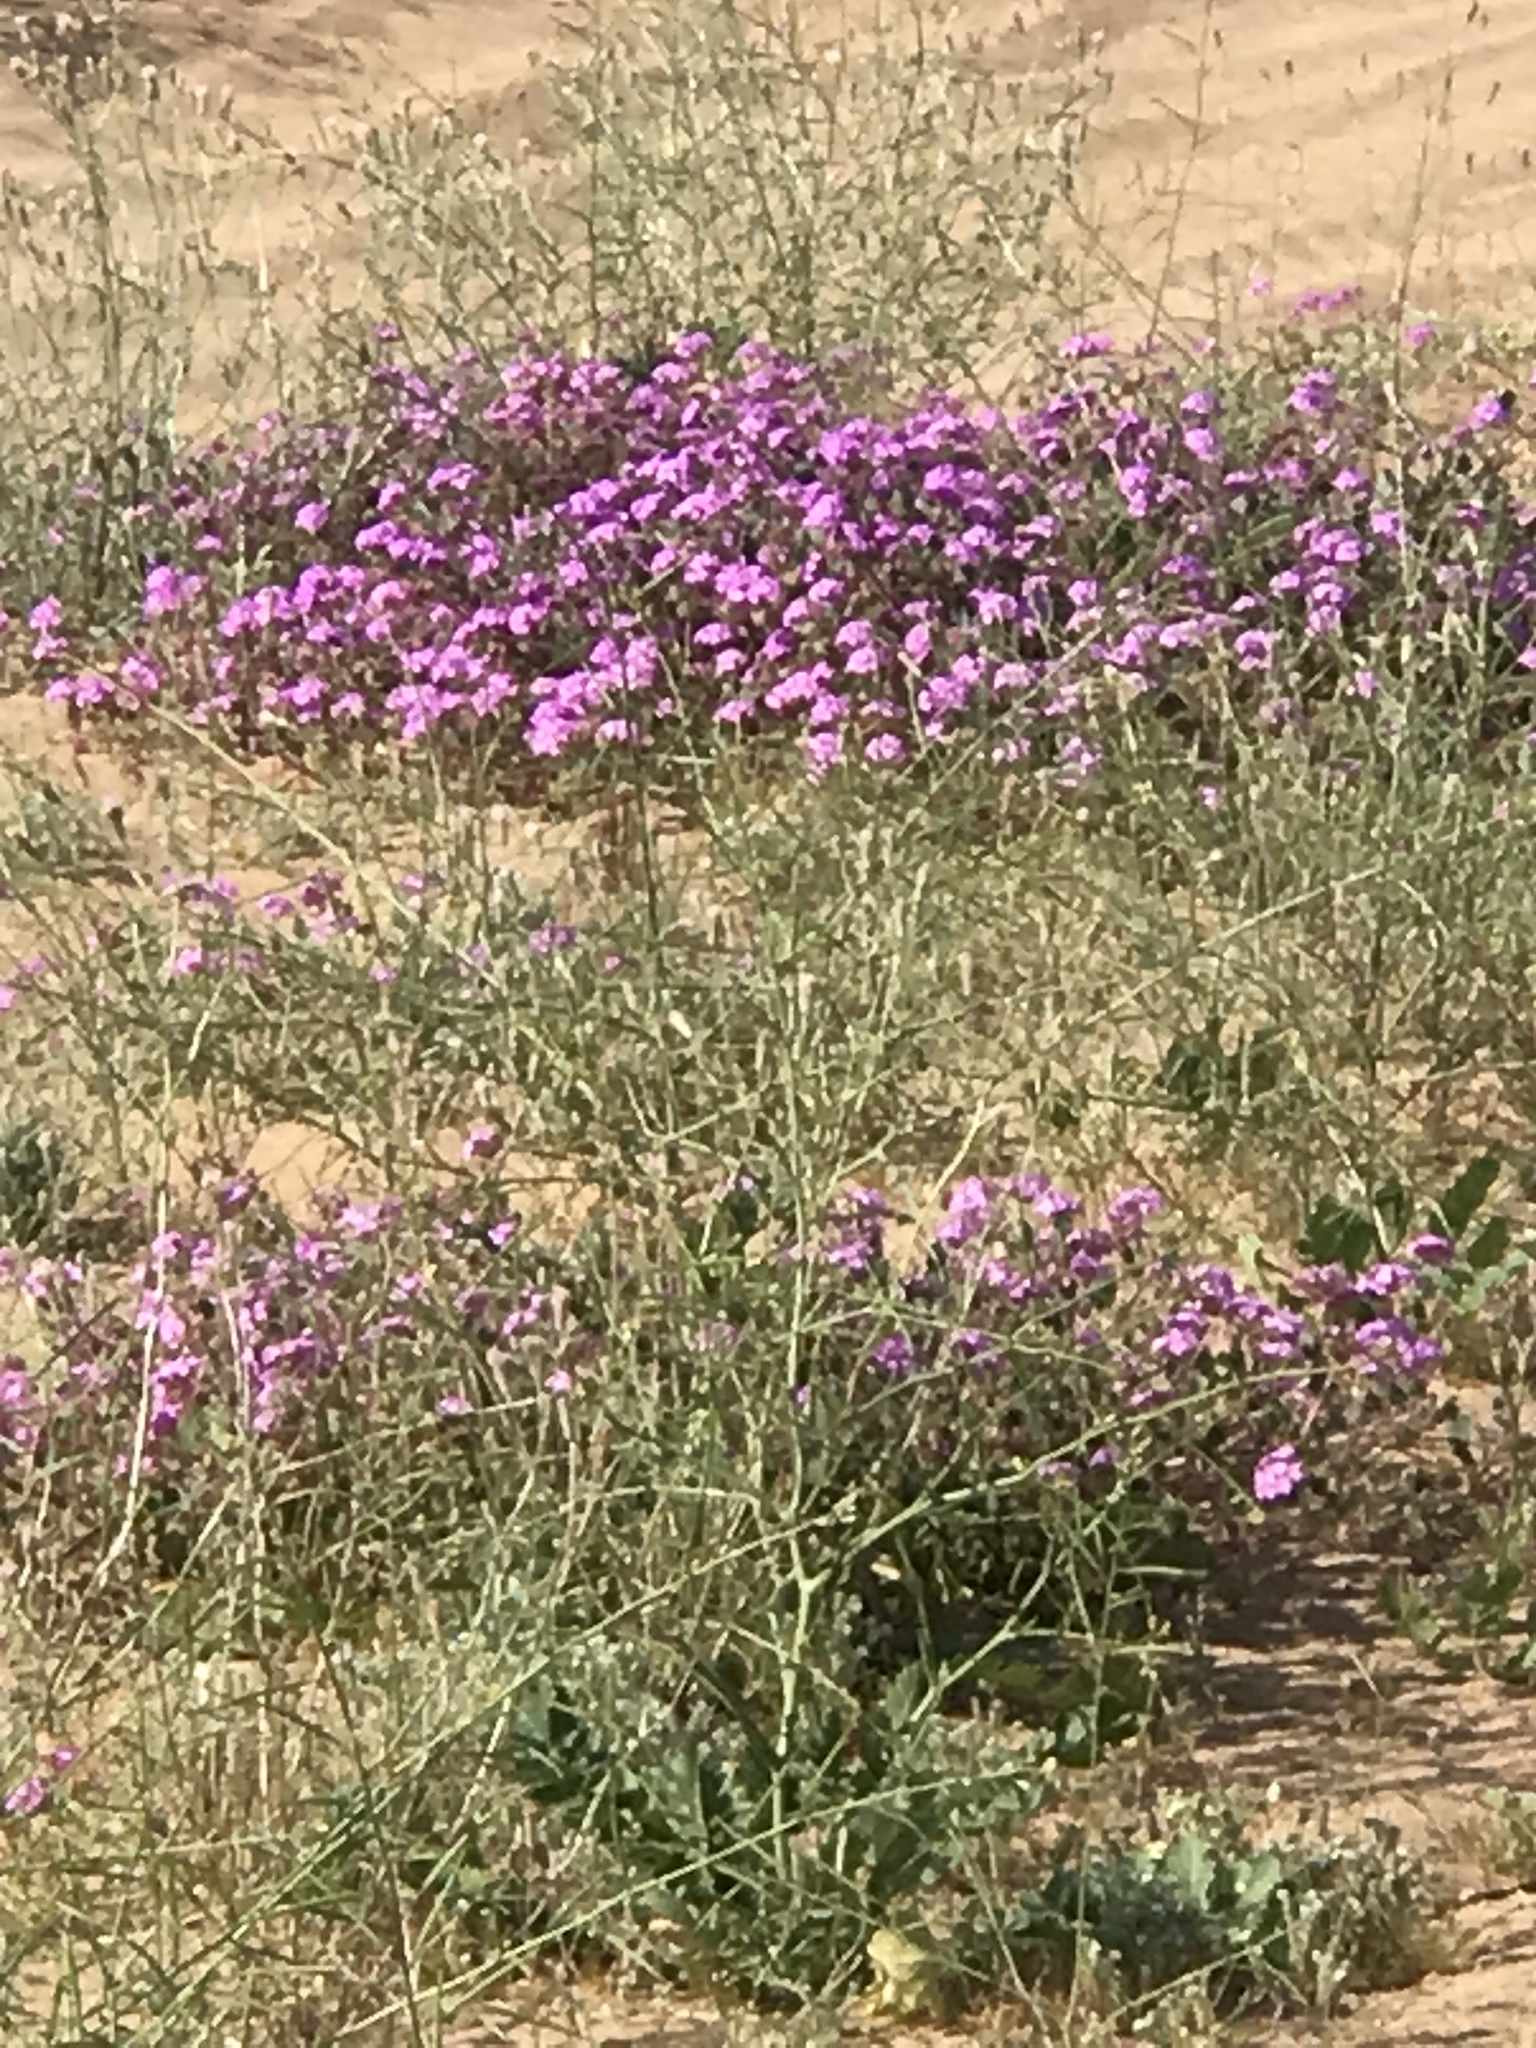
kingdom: Plantae
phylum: Tracheophyta
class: Magnoliopsida
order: Caryophyllales
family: Nyctaginaceae
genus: Abronia
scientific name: Abronia villosa
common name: Desert sand-verbena
